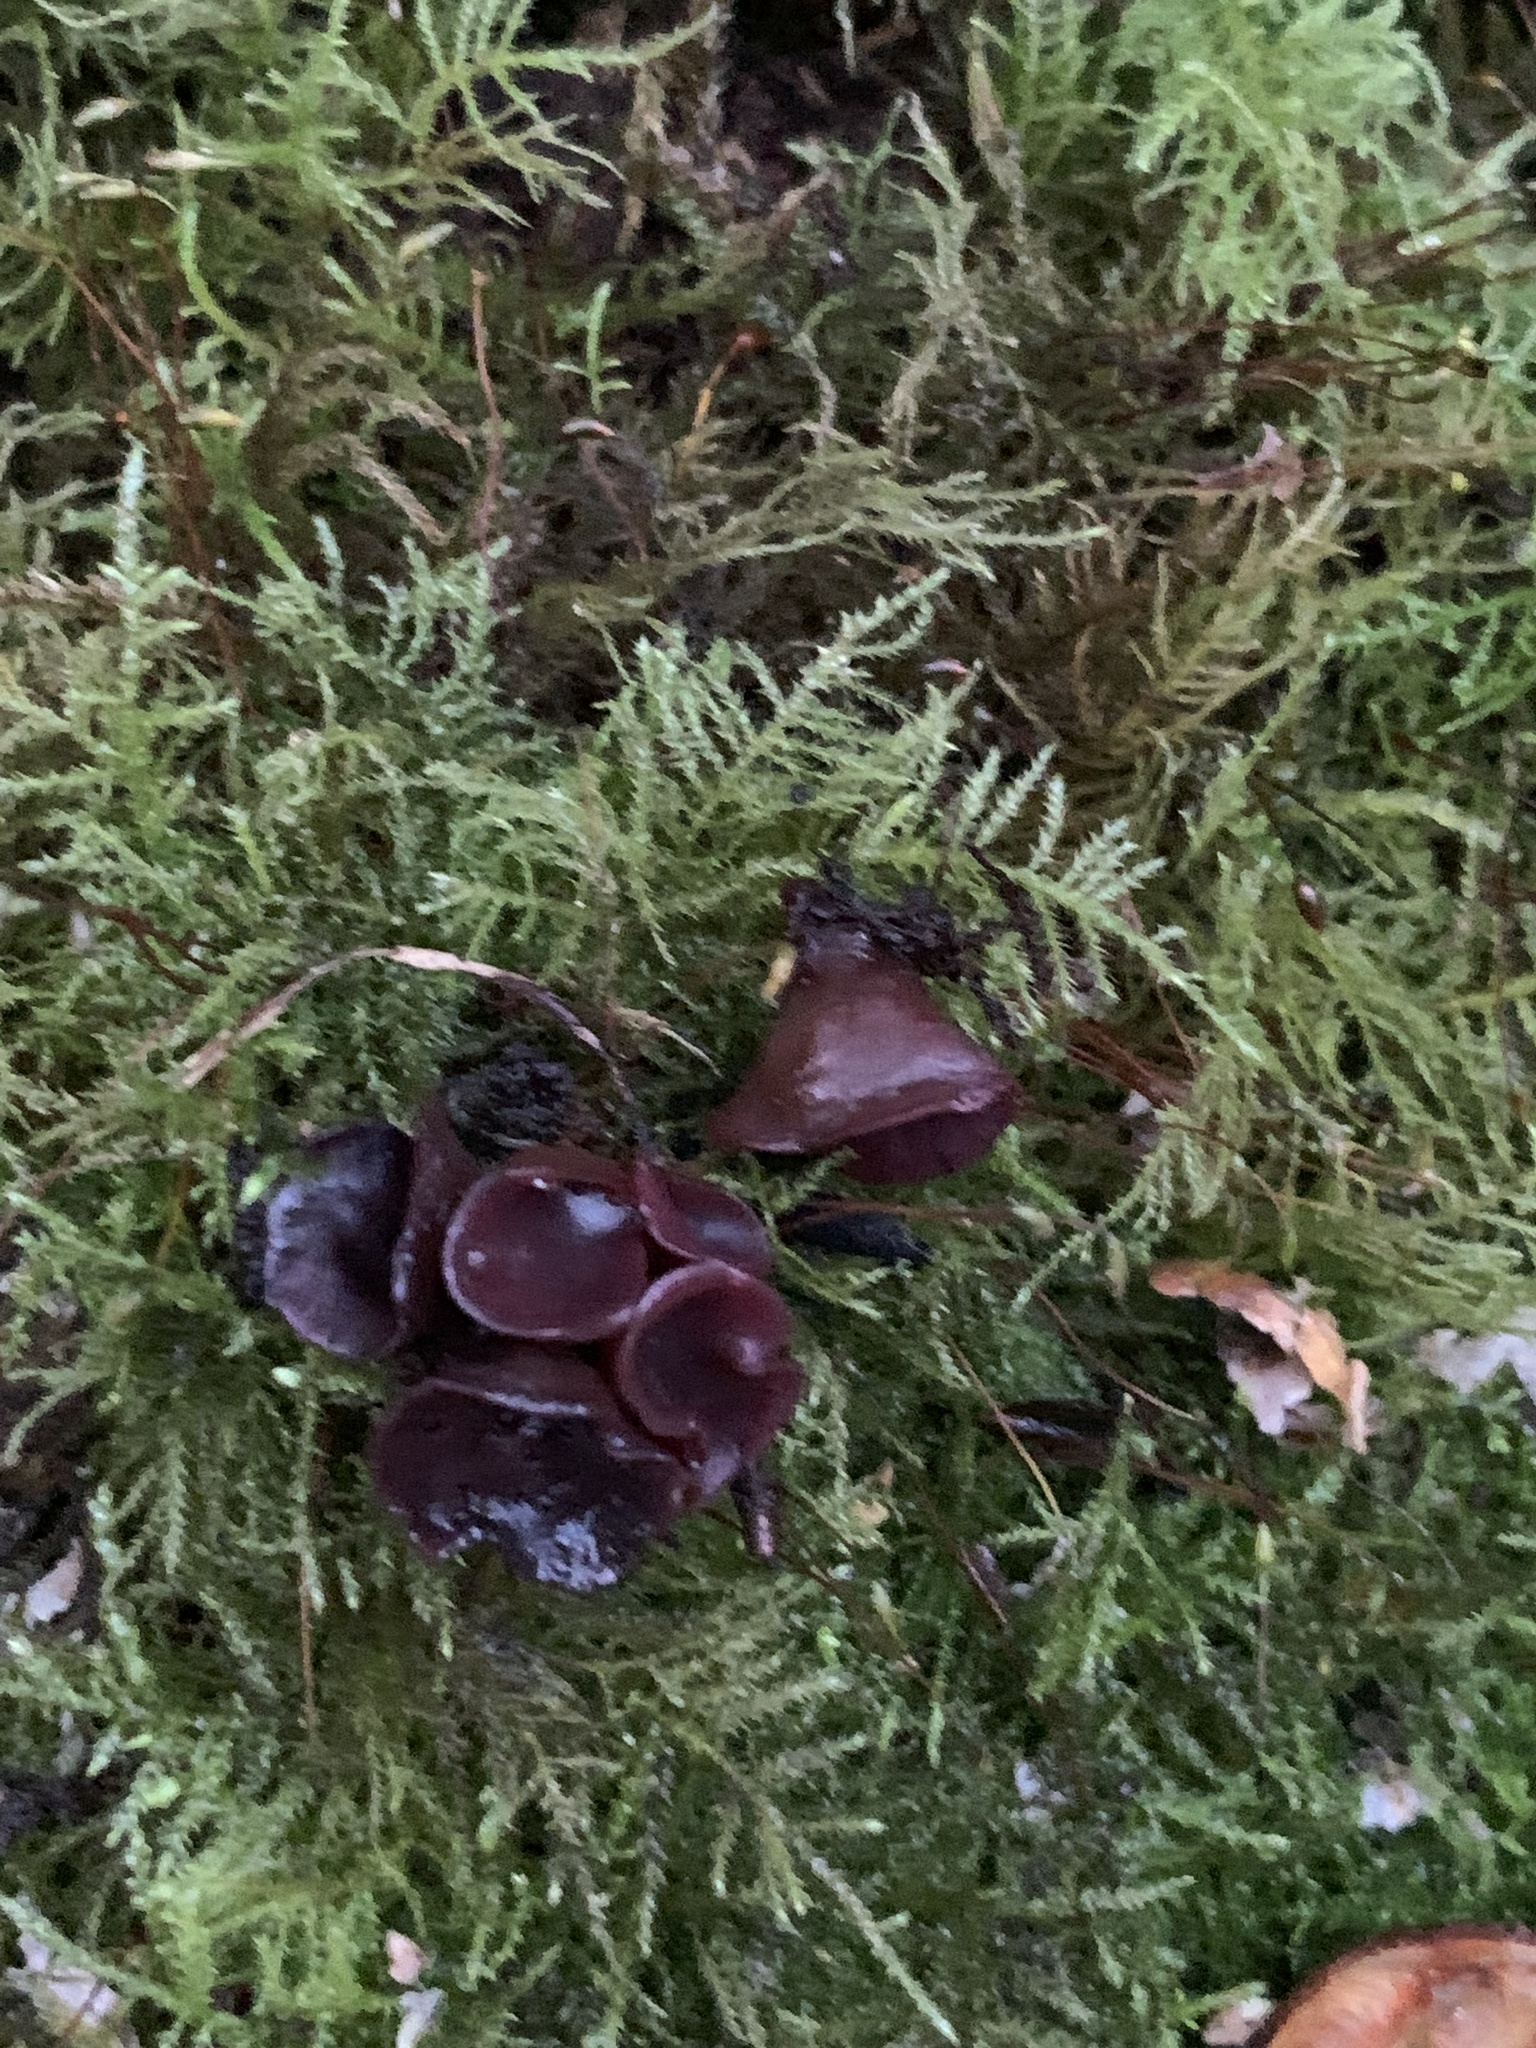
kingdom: Fungi
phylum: Ascomycota
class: Leotiomycetes
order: Helotiales
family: Gelatinodiscaceae
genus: Ascocoryne
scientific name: Ascocoryne sarcoides
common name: Purple jellydisc
